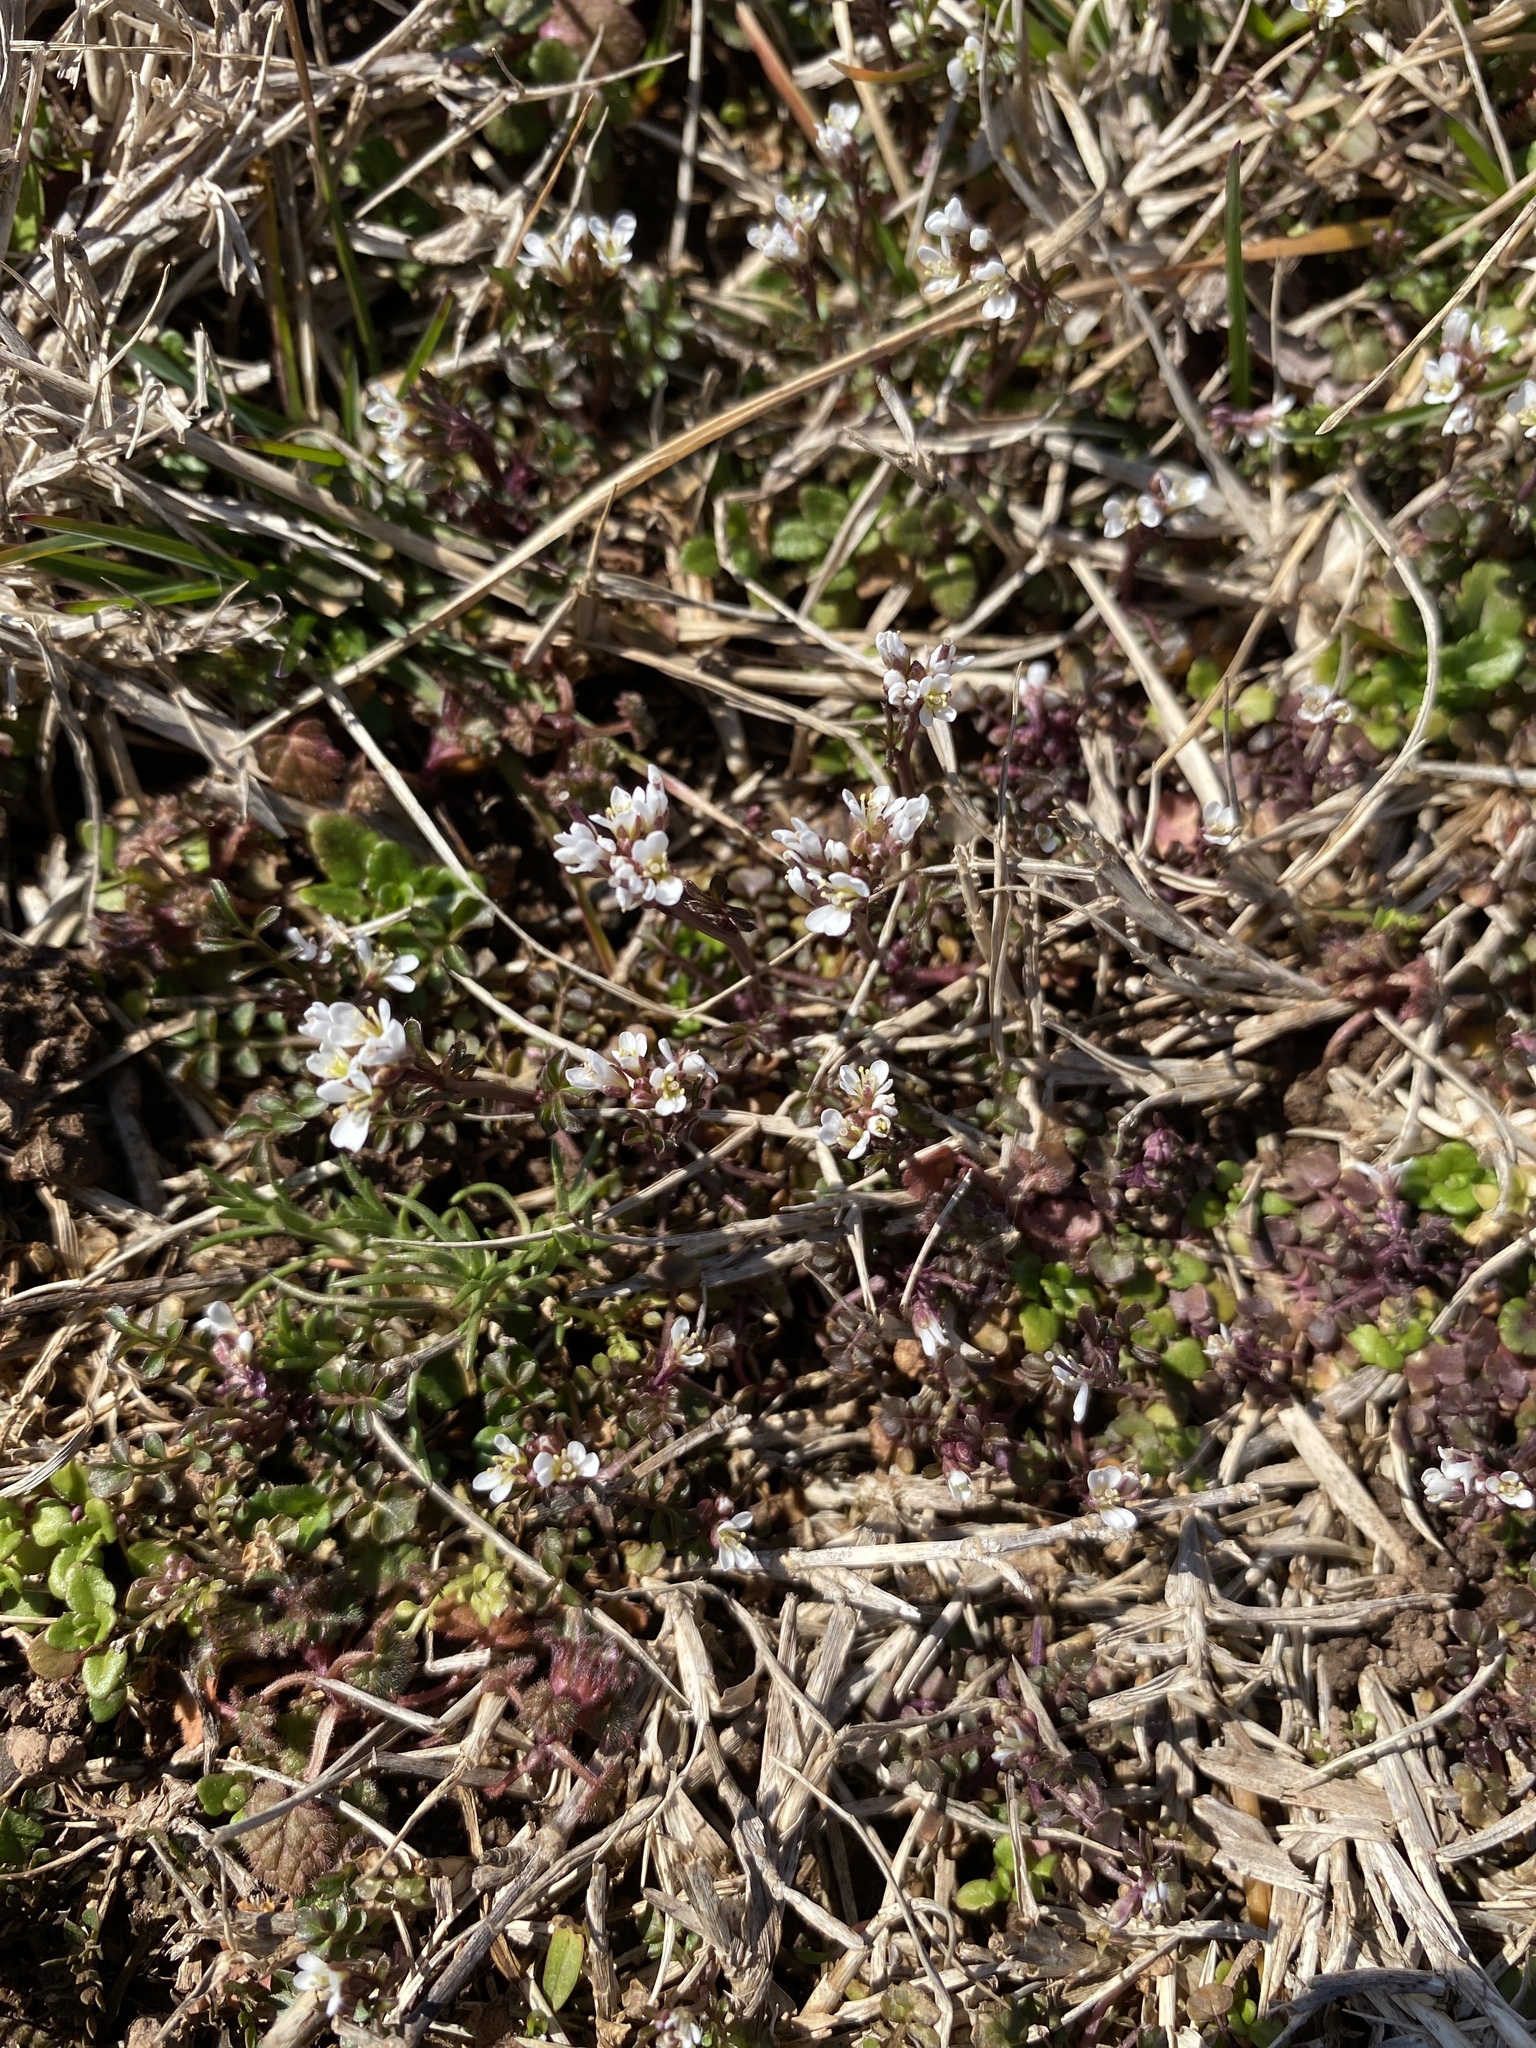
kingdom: Plantae
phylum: Tracheophyta
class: Magnoliopsida
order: Brassicales
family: Brassicaceae
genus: Cardamine
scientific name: Cardamine hirsuta
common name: Hairy bittercress
